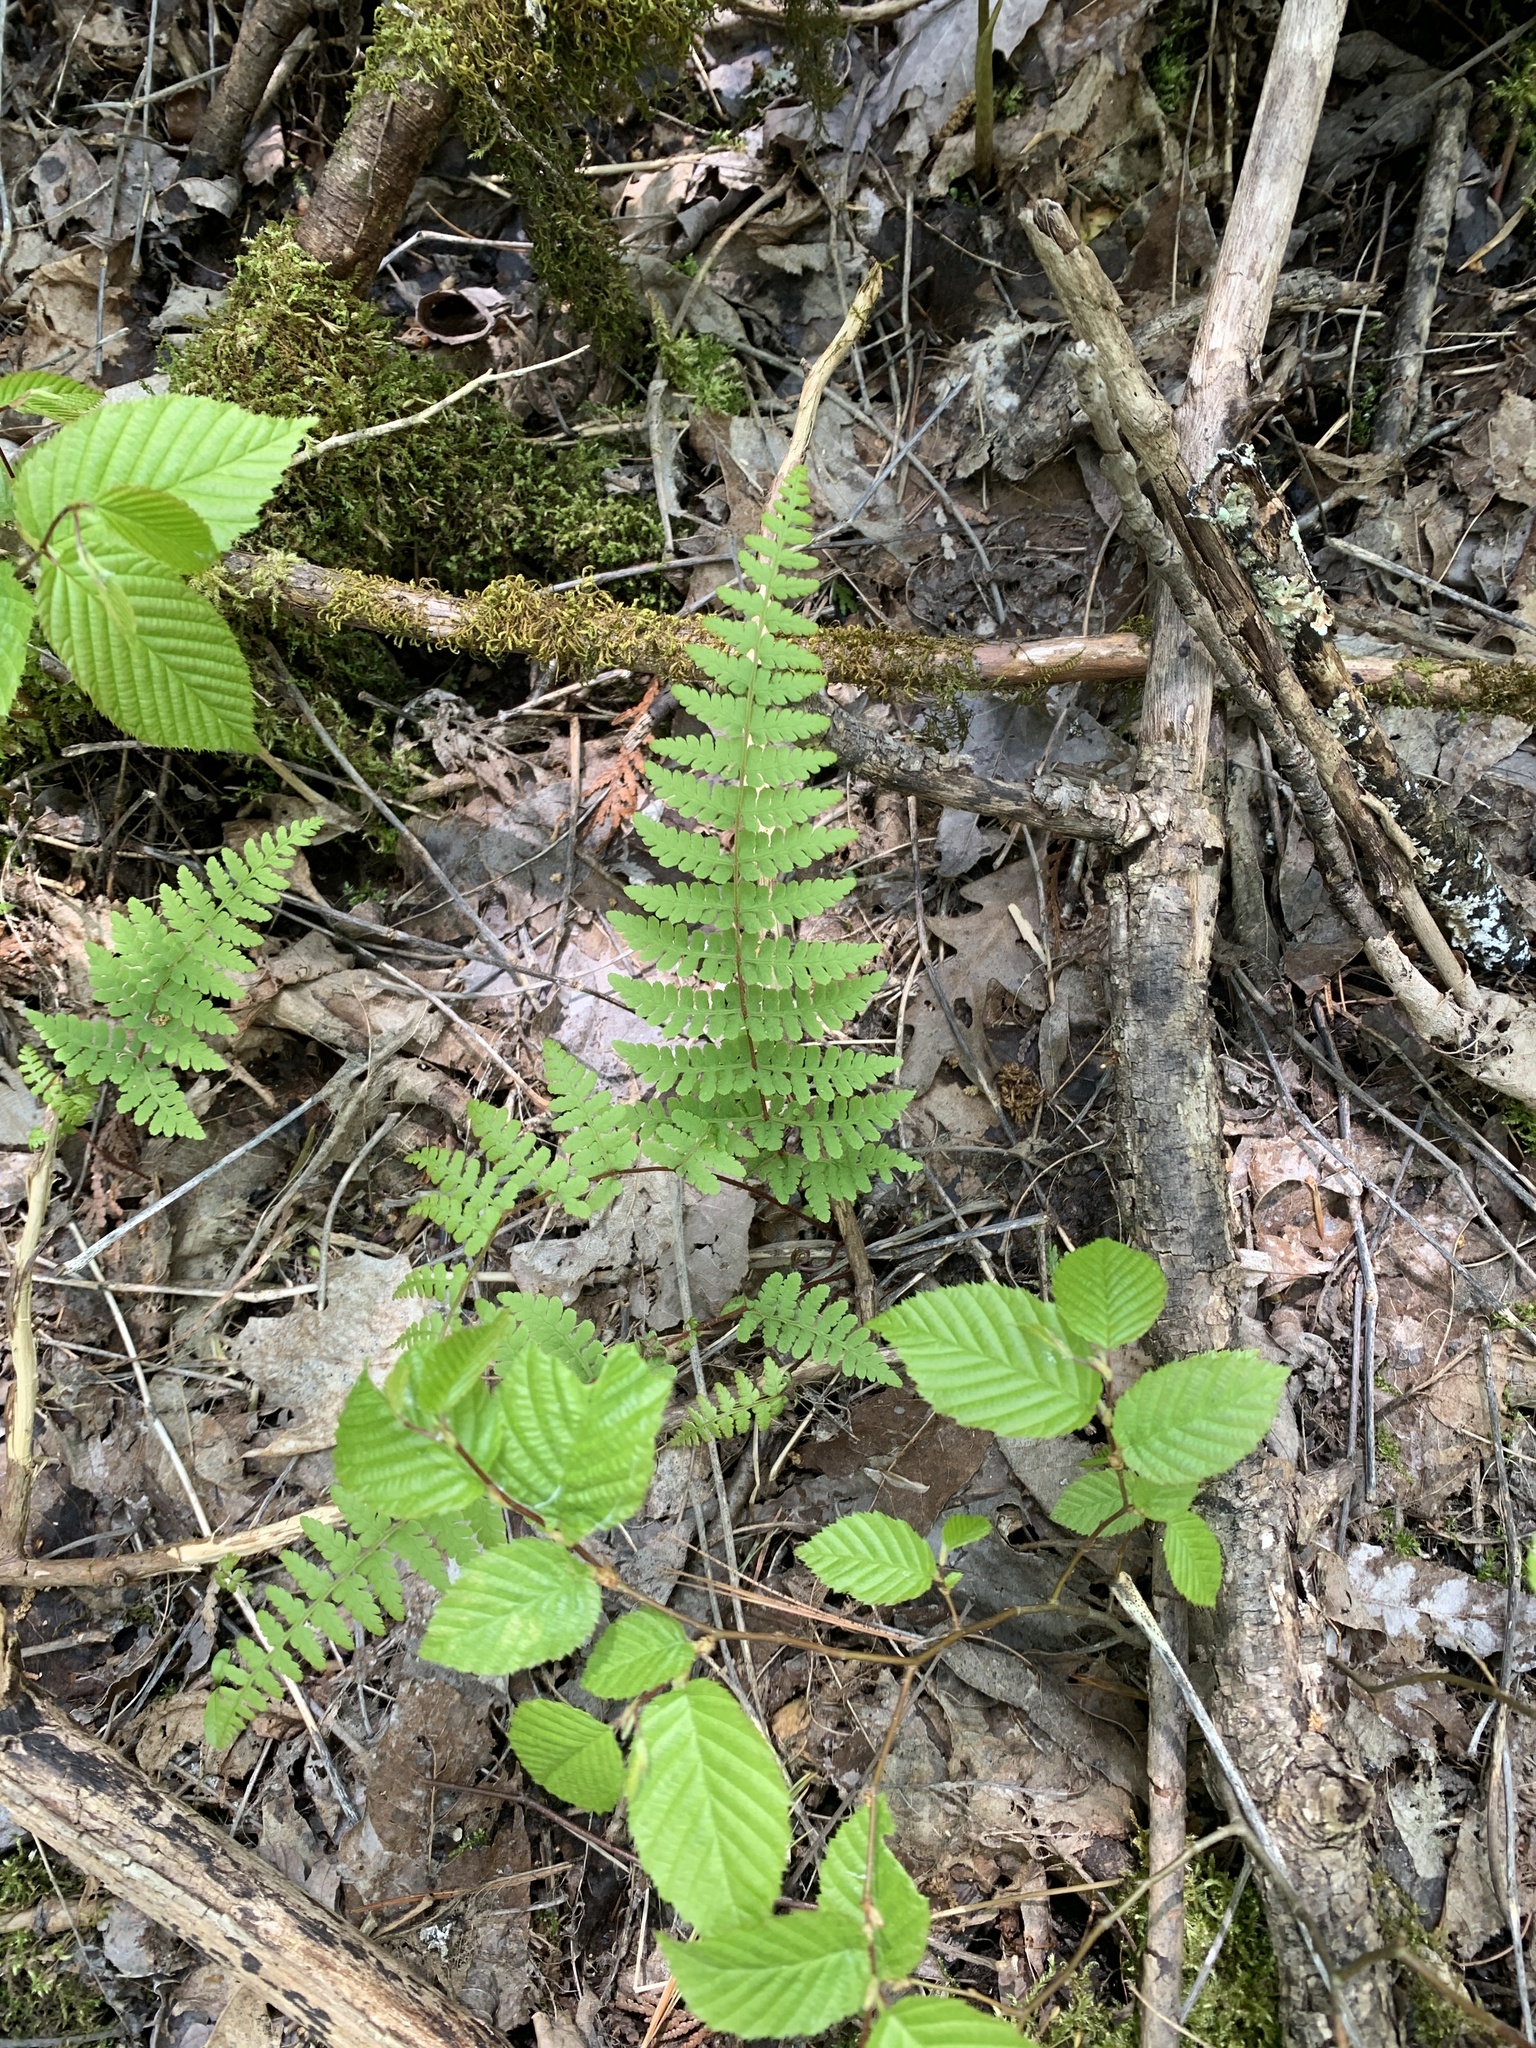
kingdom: Plantae
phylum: Tracheophyta
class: Polypodiopsida
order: Polypodiales
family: Cystopteridaceae
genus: Cystopteris
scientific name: Cystopteris bulbifera
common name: Bulblet bladder fern
